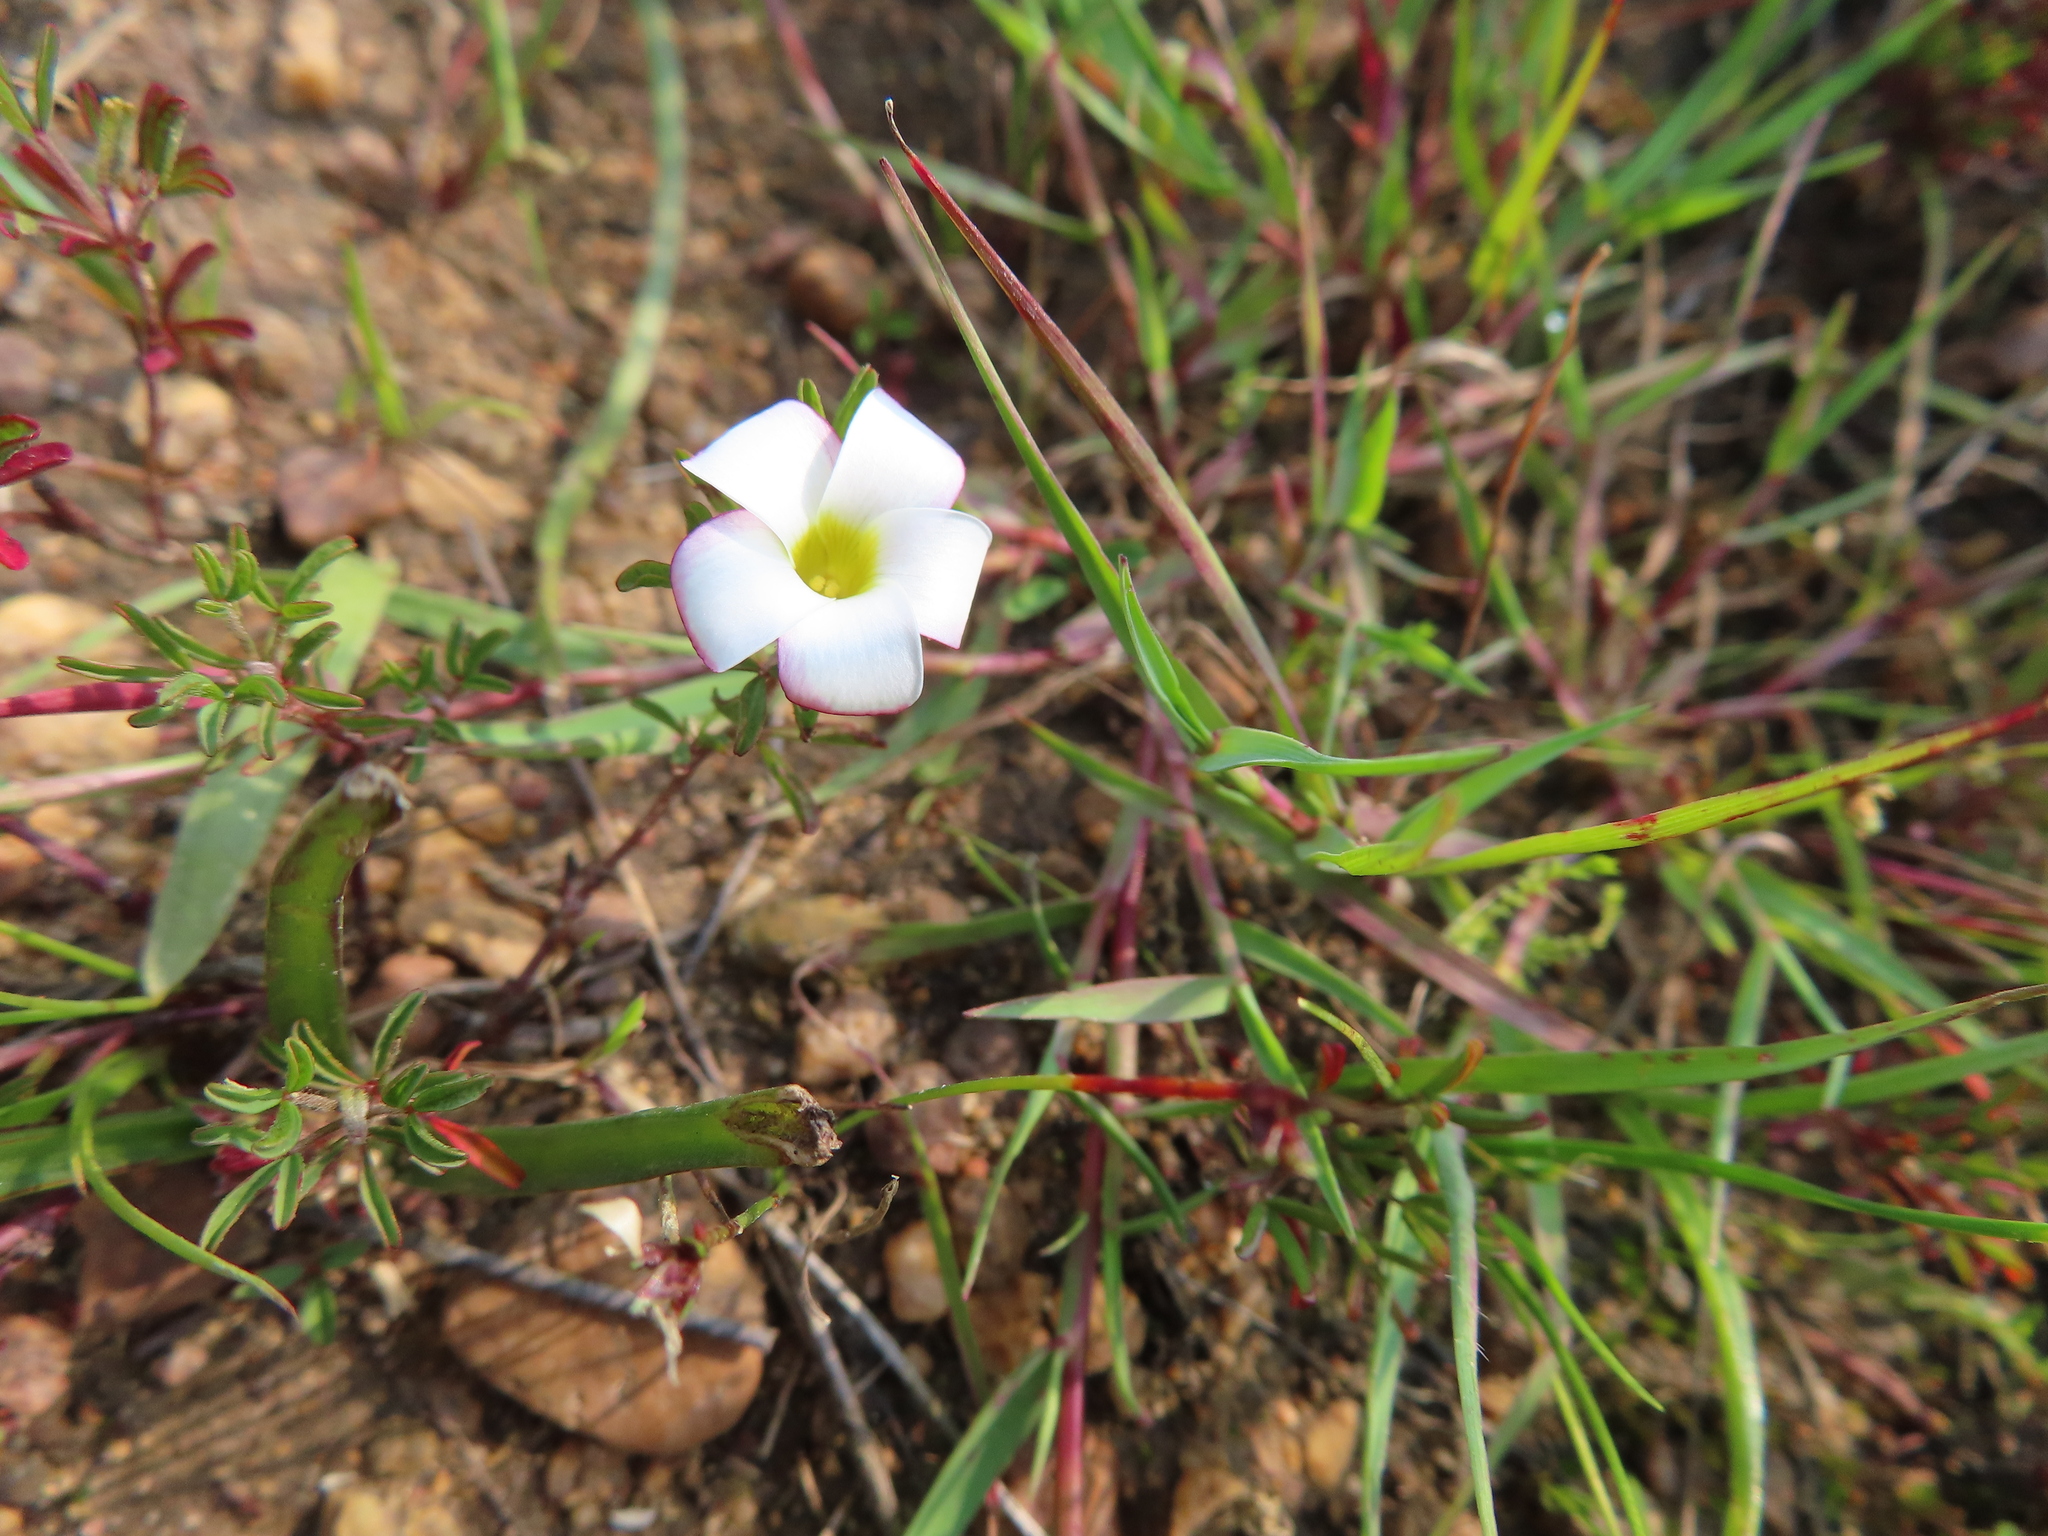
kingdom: Plantae
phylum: Tracheophyta
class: Magnoliopsida
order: Oxalidales
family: Oxalidaceae
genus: Oxalis
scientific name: Oxalis multicaulis
